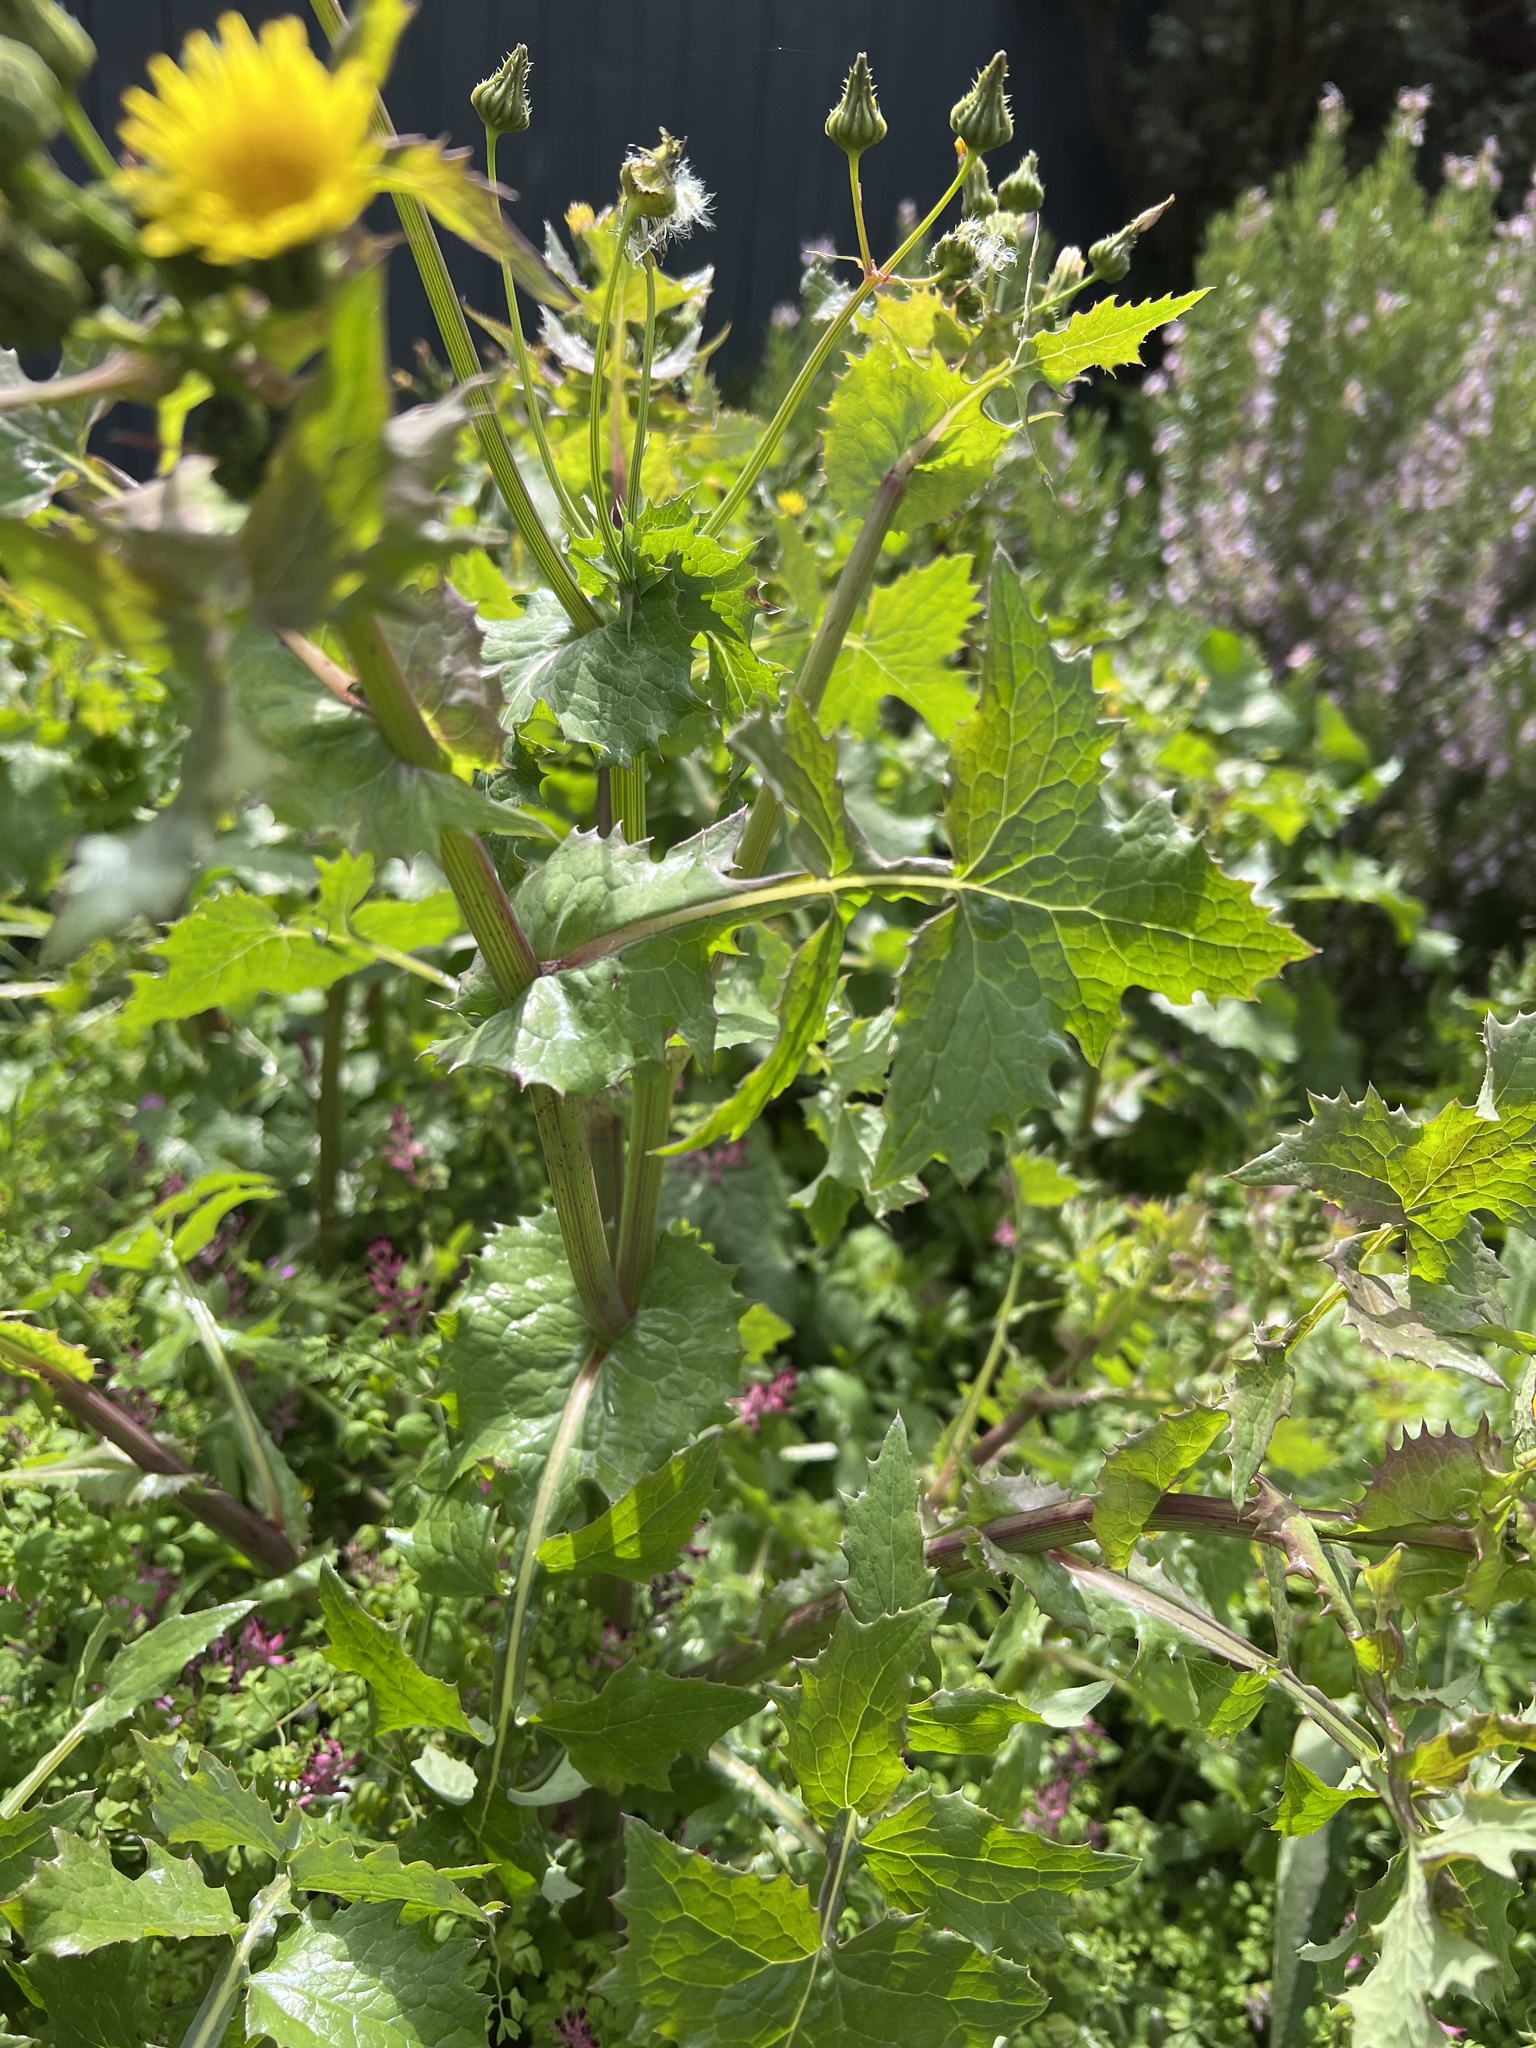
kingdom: Plantae
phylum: Tracheophyta
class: Magnoliopsida
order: Asterales
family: Asteraceae
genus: Sonchus
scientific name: Sonchus oleraceus
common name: Common sowthistle
